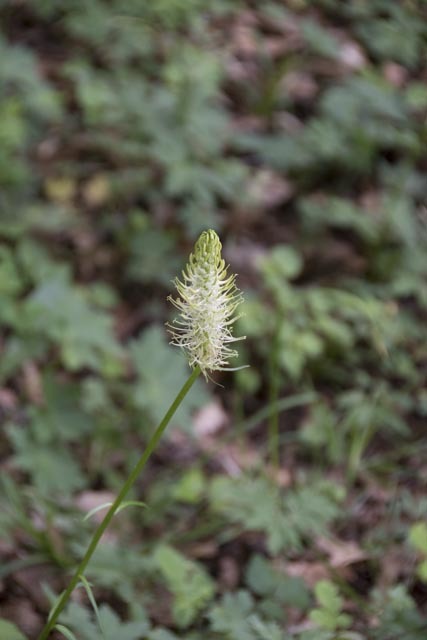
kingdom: Plantae
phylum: Tracheophyta
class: Magnoliopsida
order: Asterales
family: Campanulaceae
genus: Phyteuma
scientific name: Phyteuma spicatum
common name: Spiked rampion
